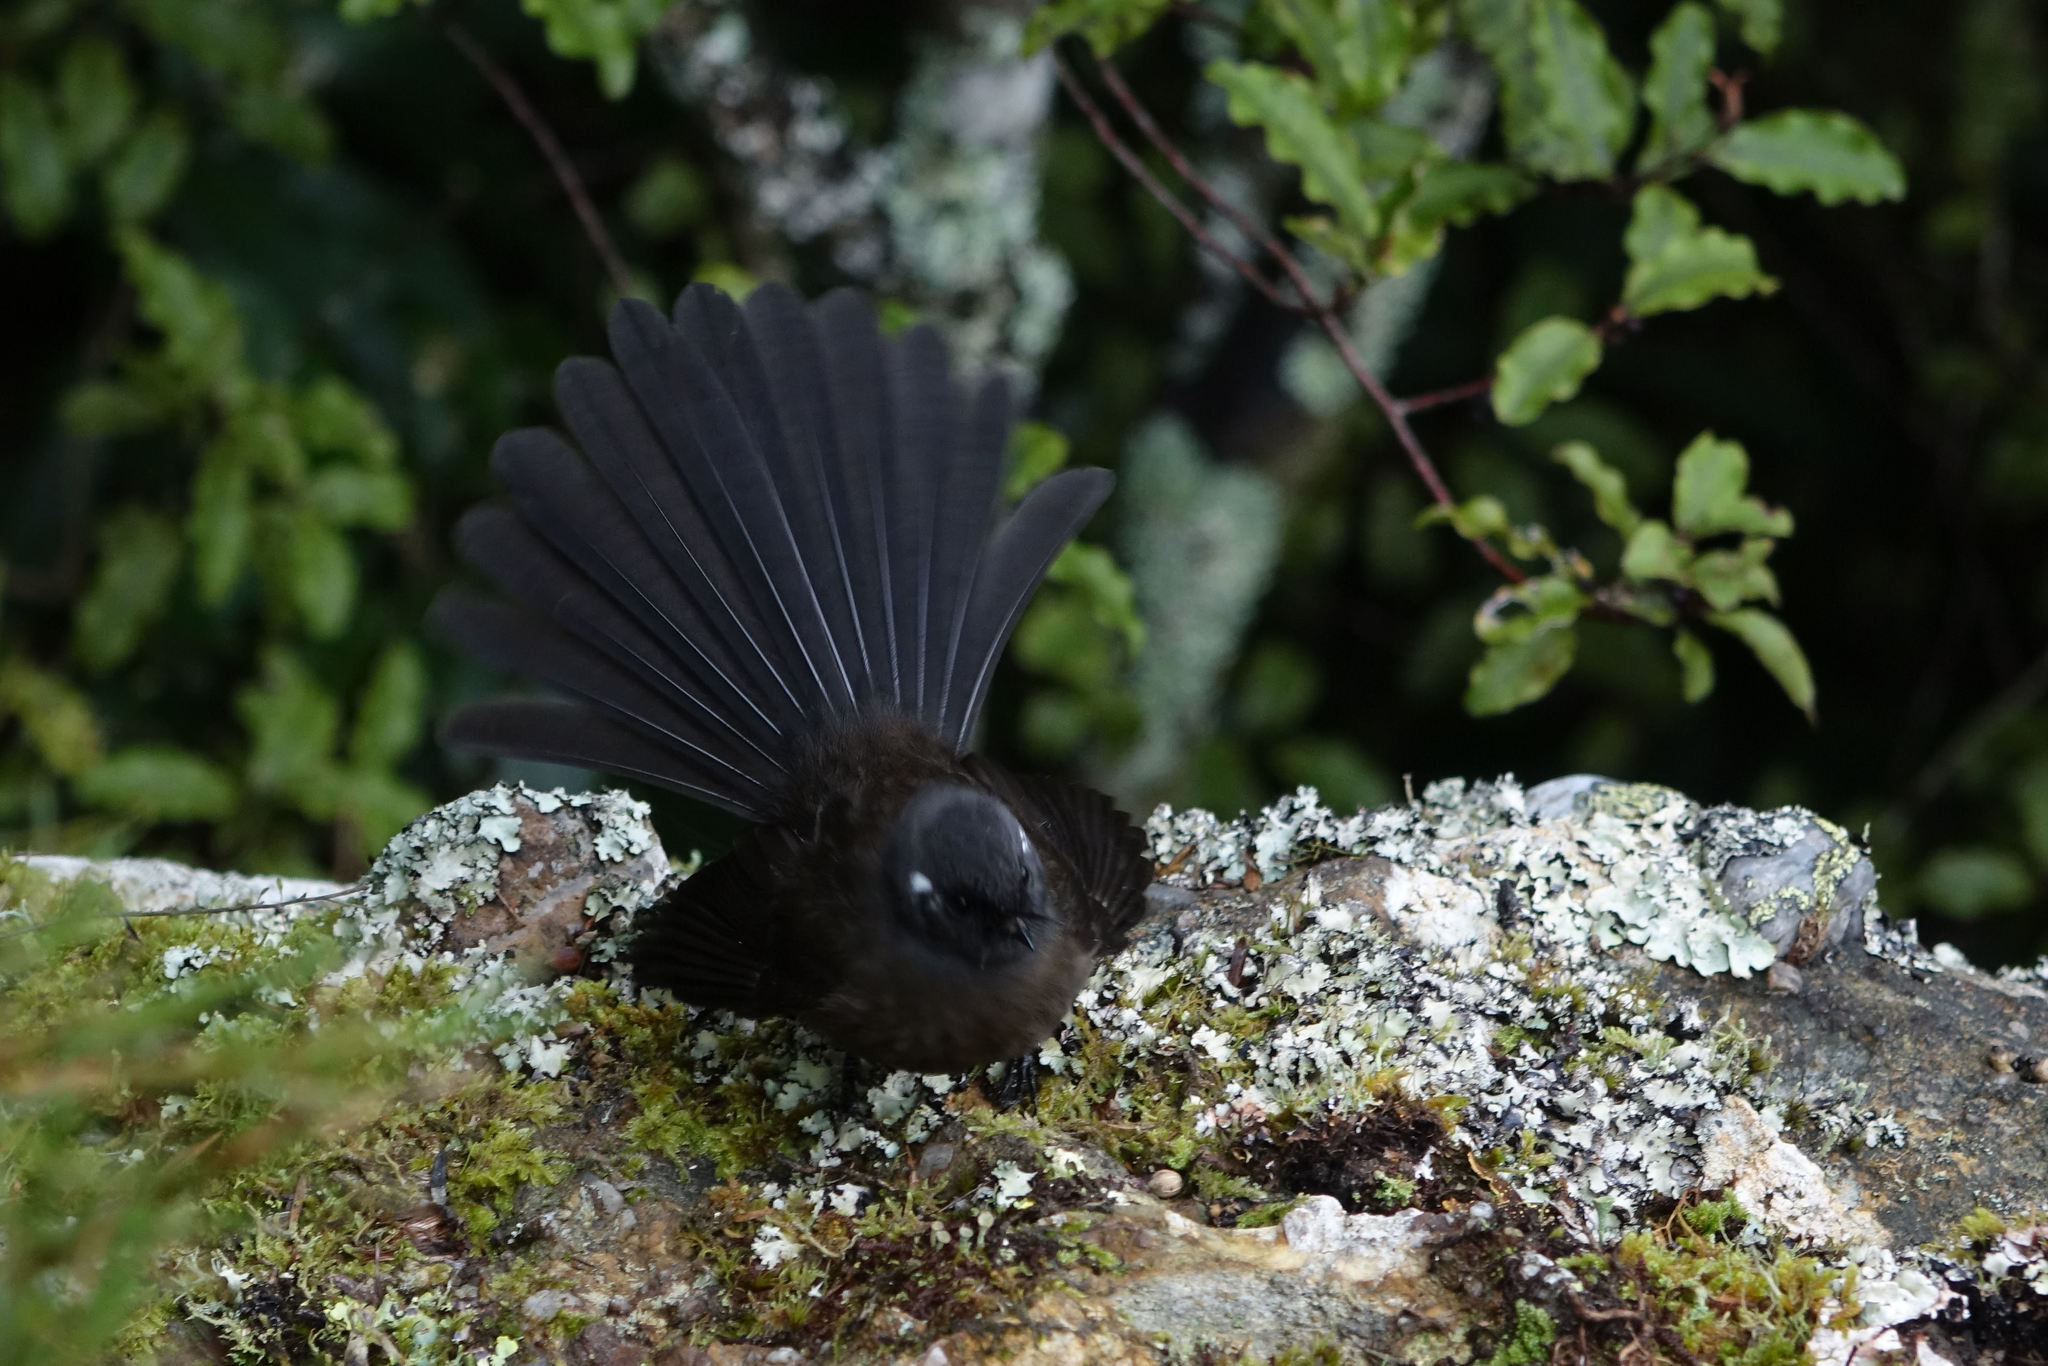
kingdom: Animalia
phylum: Chordata
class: Aves
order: Passeriformes
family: Rhipiduridae
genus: Rhipidura
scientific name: Rhipidura fuliginosa
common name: New zealand fantail
